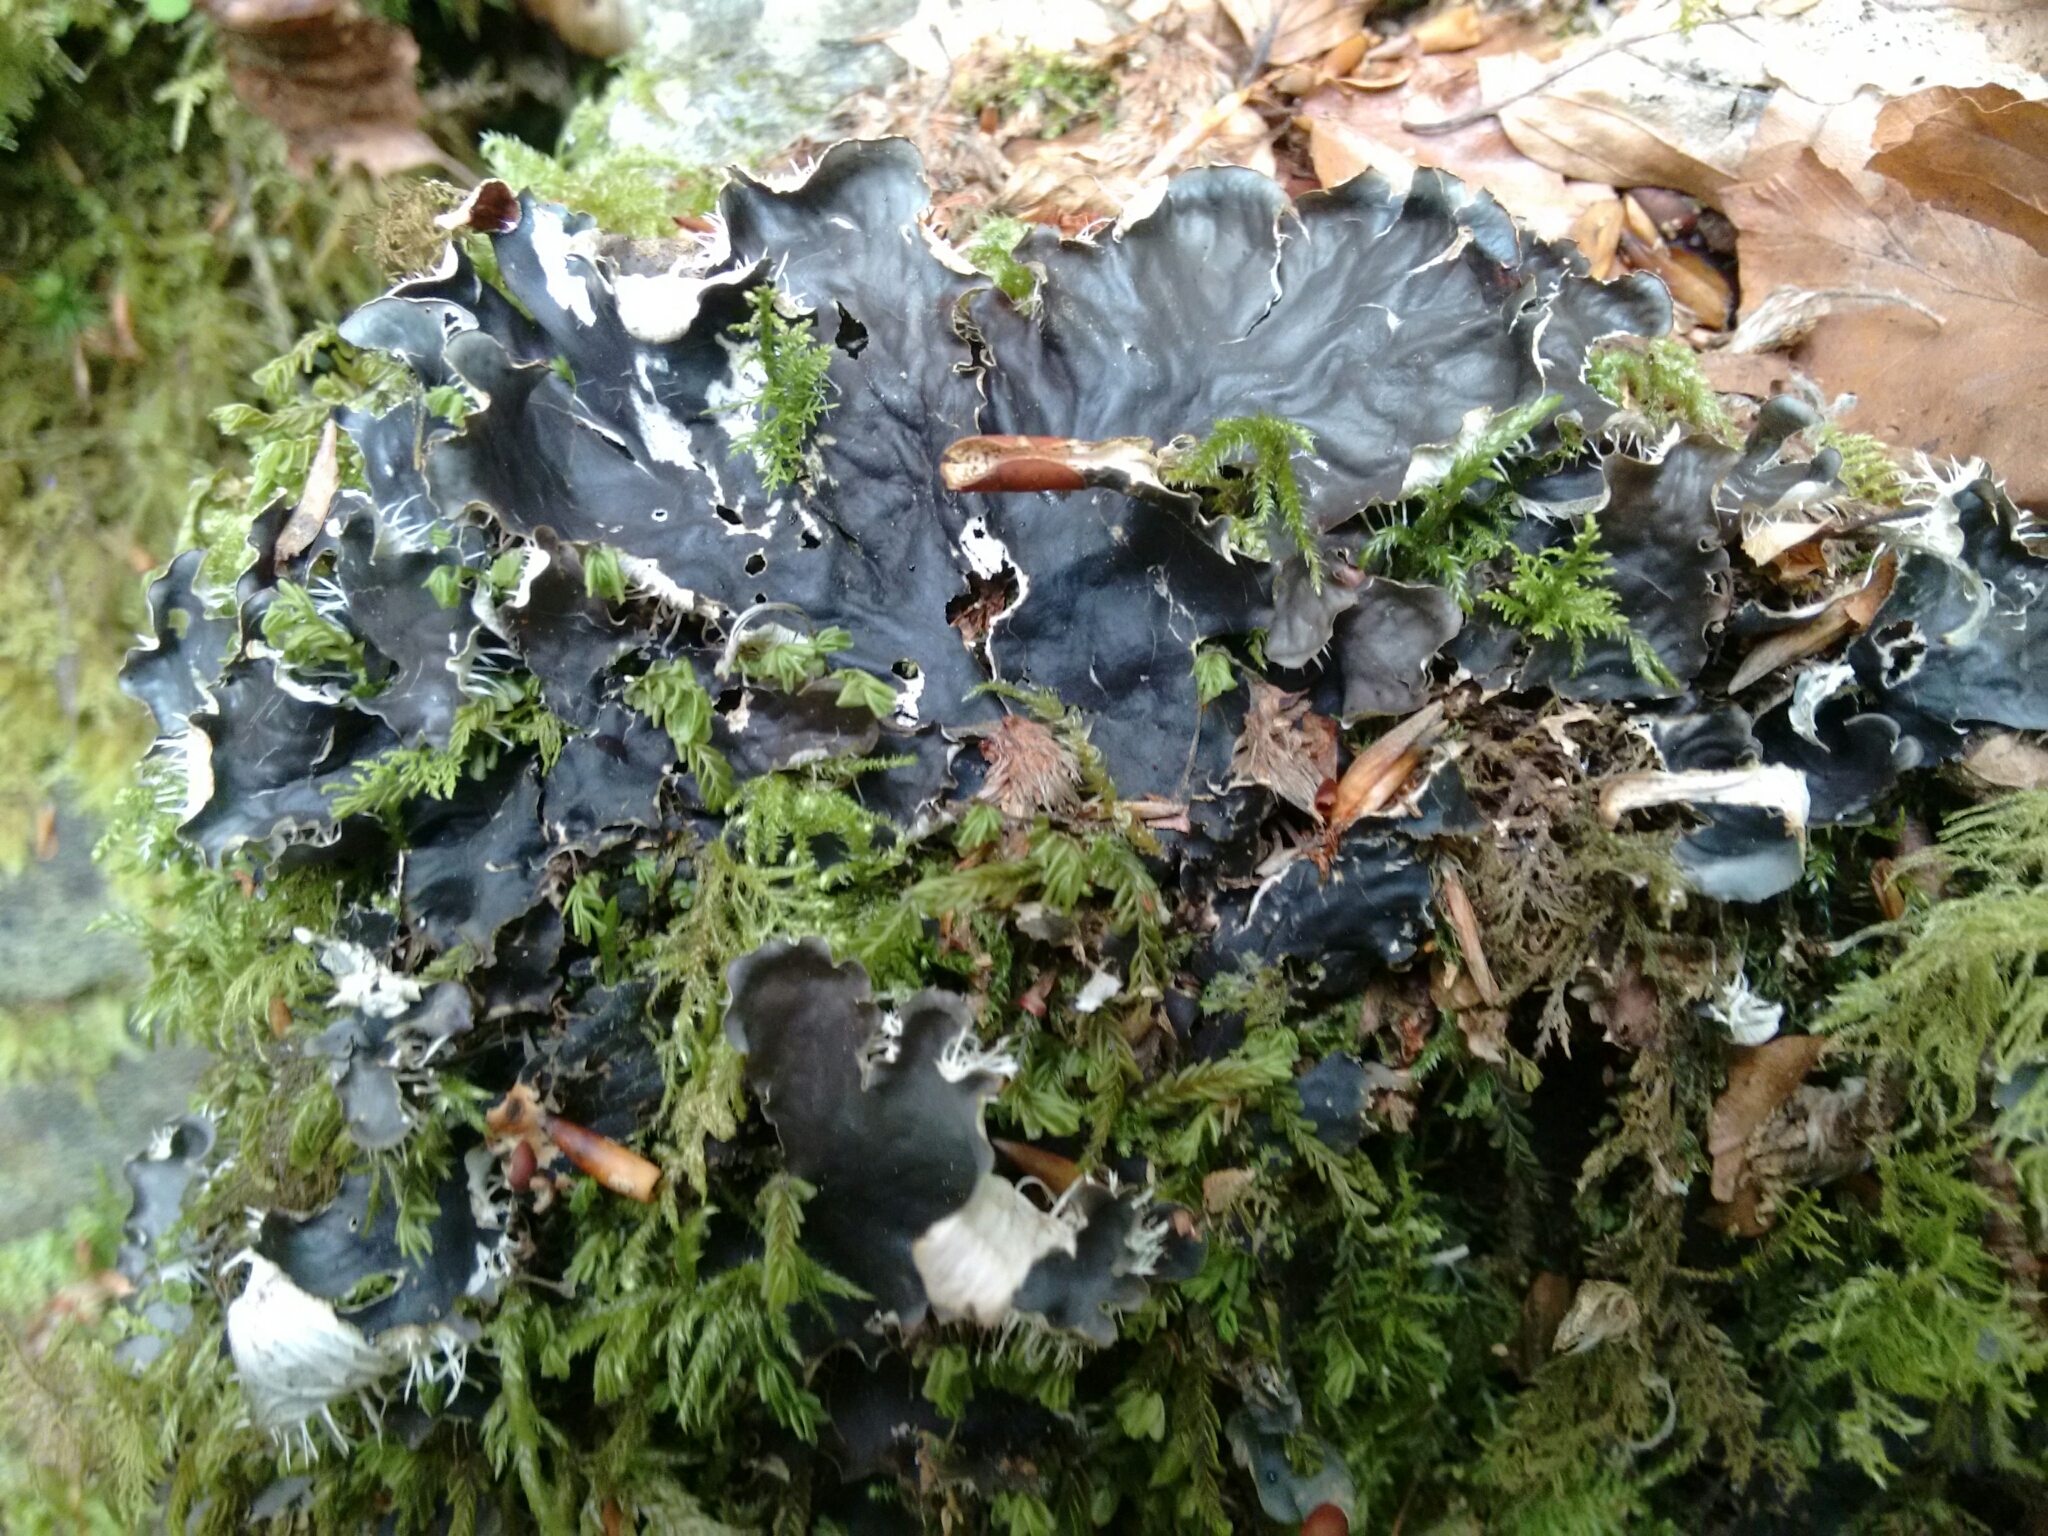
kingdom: Fungi
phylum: Ascomycota
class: Lecanoromycetes
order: Peltigerales
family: Peltigeraceae
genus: Peltigera
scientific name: Peltigera
